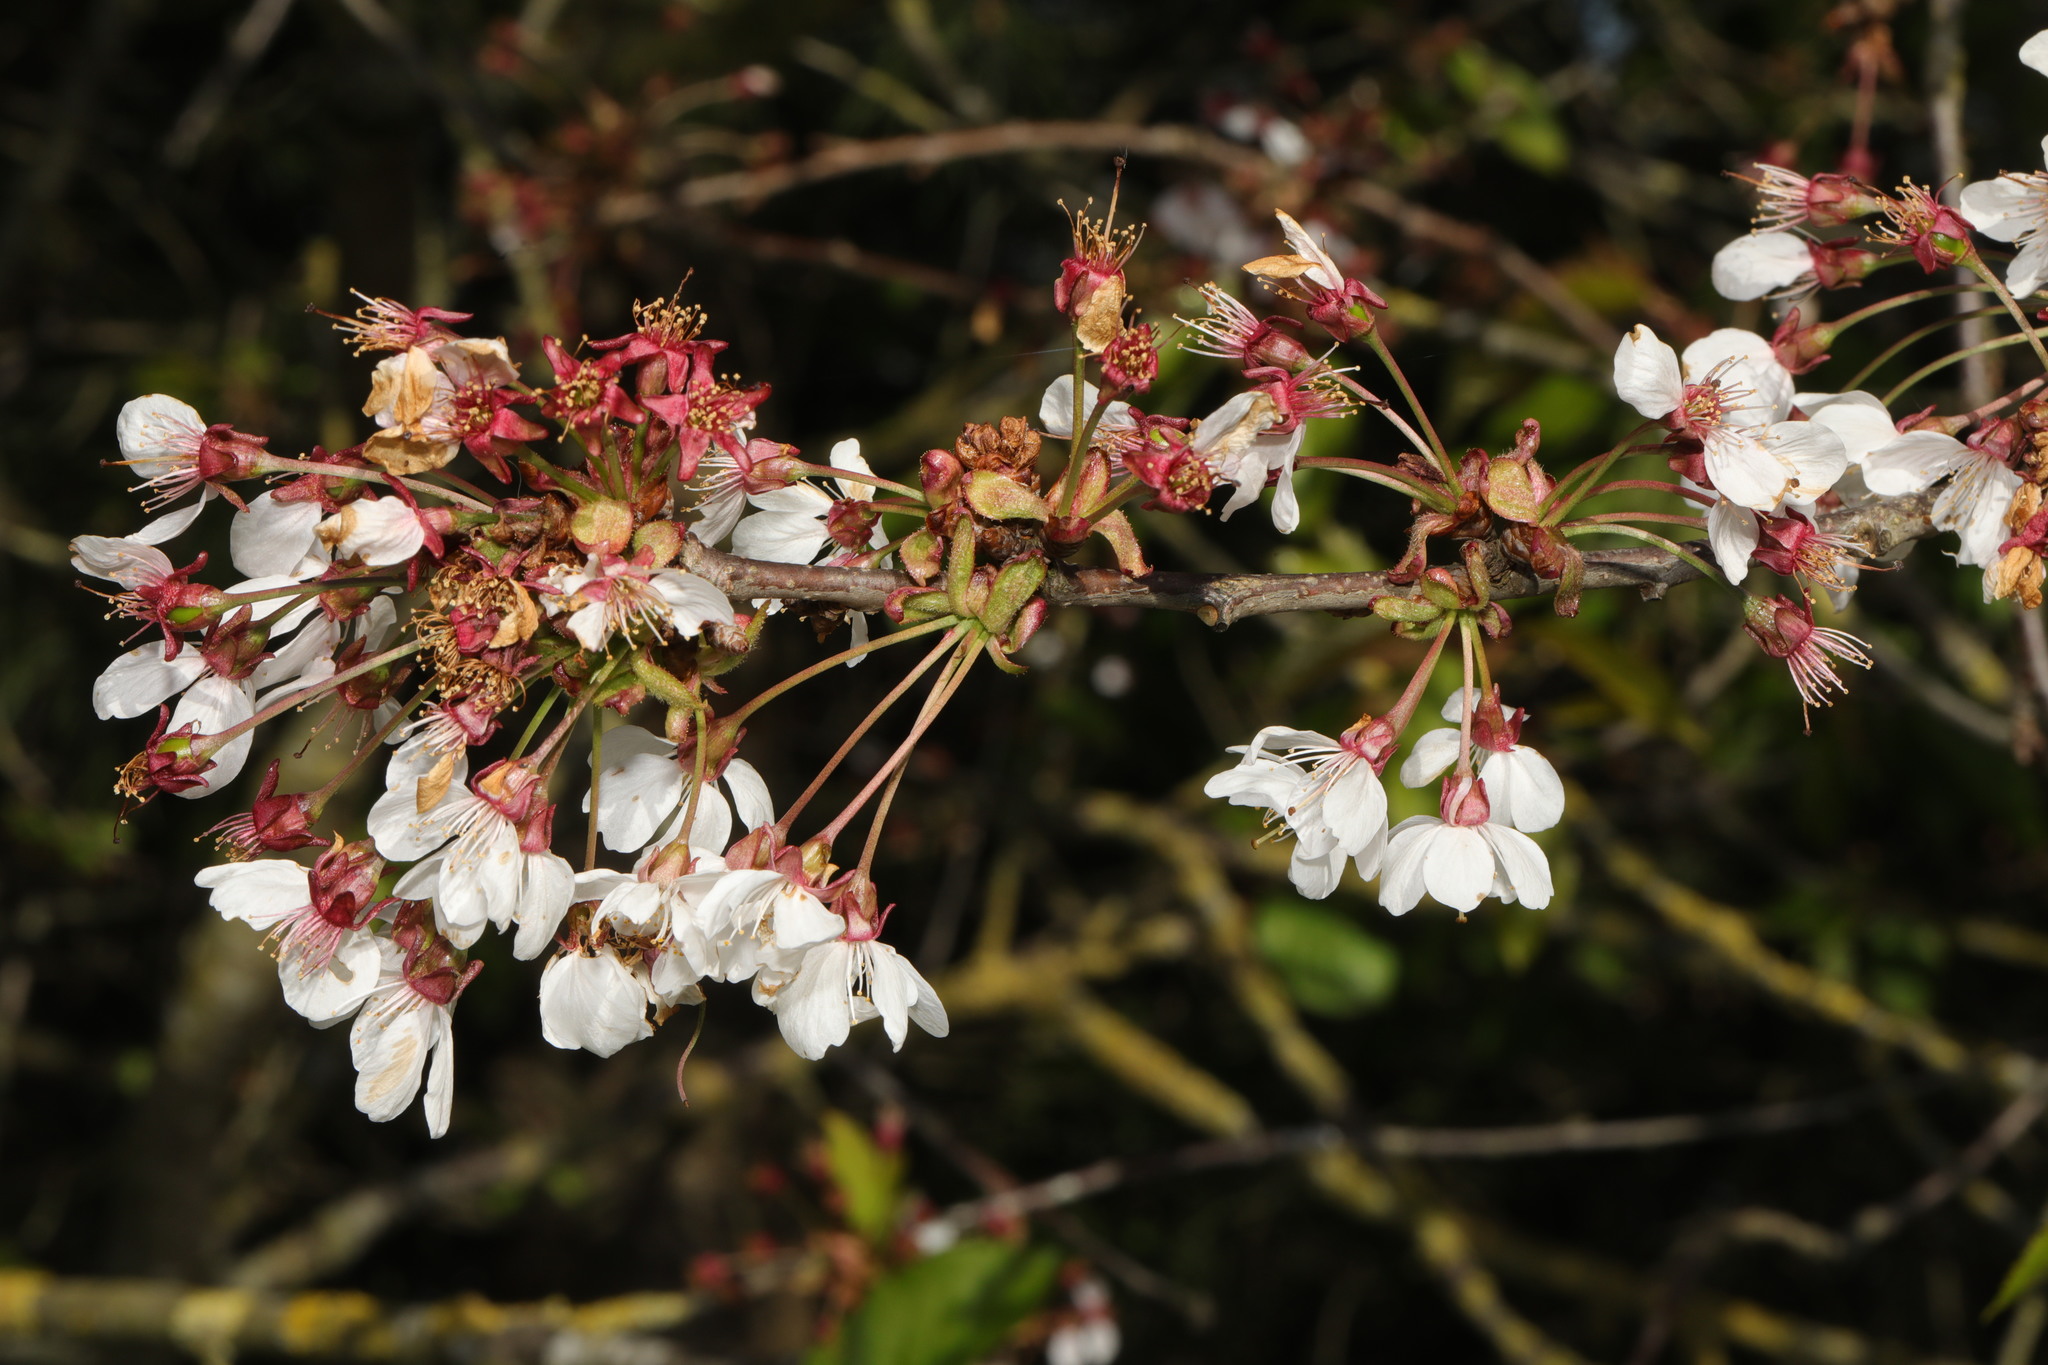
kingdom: Plantae
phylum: Tracheophyta
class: Magnoliopsida
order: Rosales
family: Rosaceae
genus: Prunus
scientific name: Prunus avium
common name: Sweet cherry
